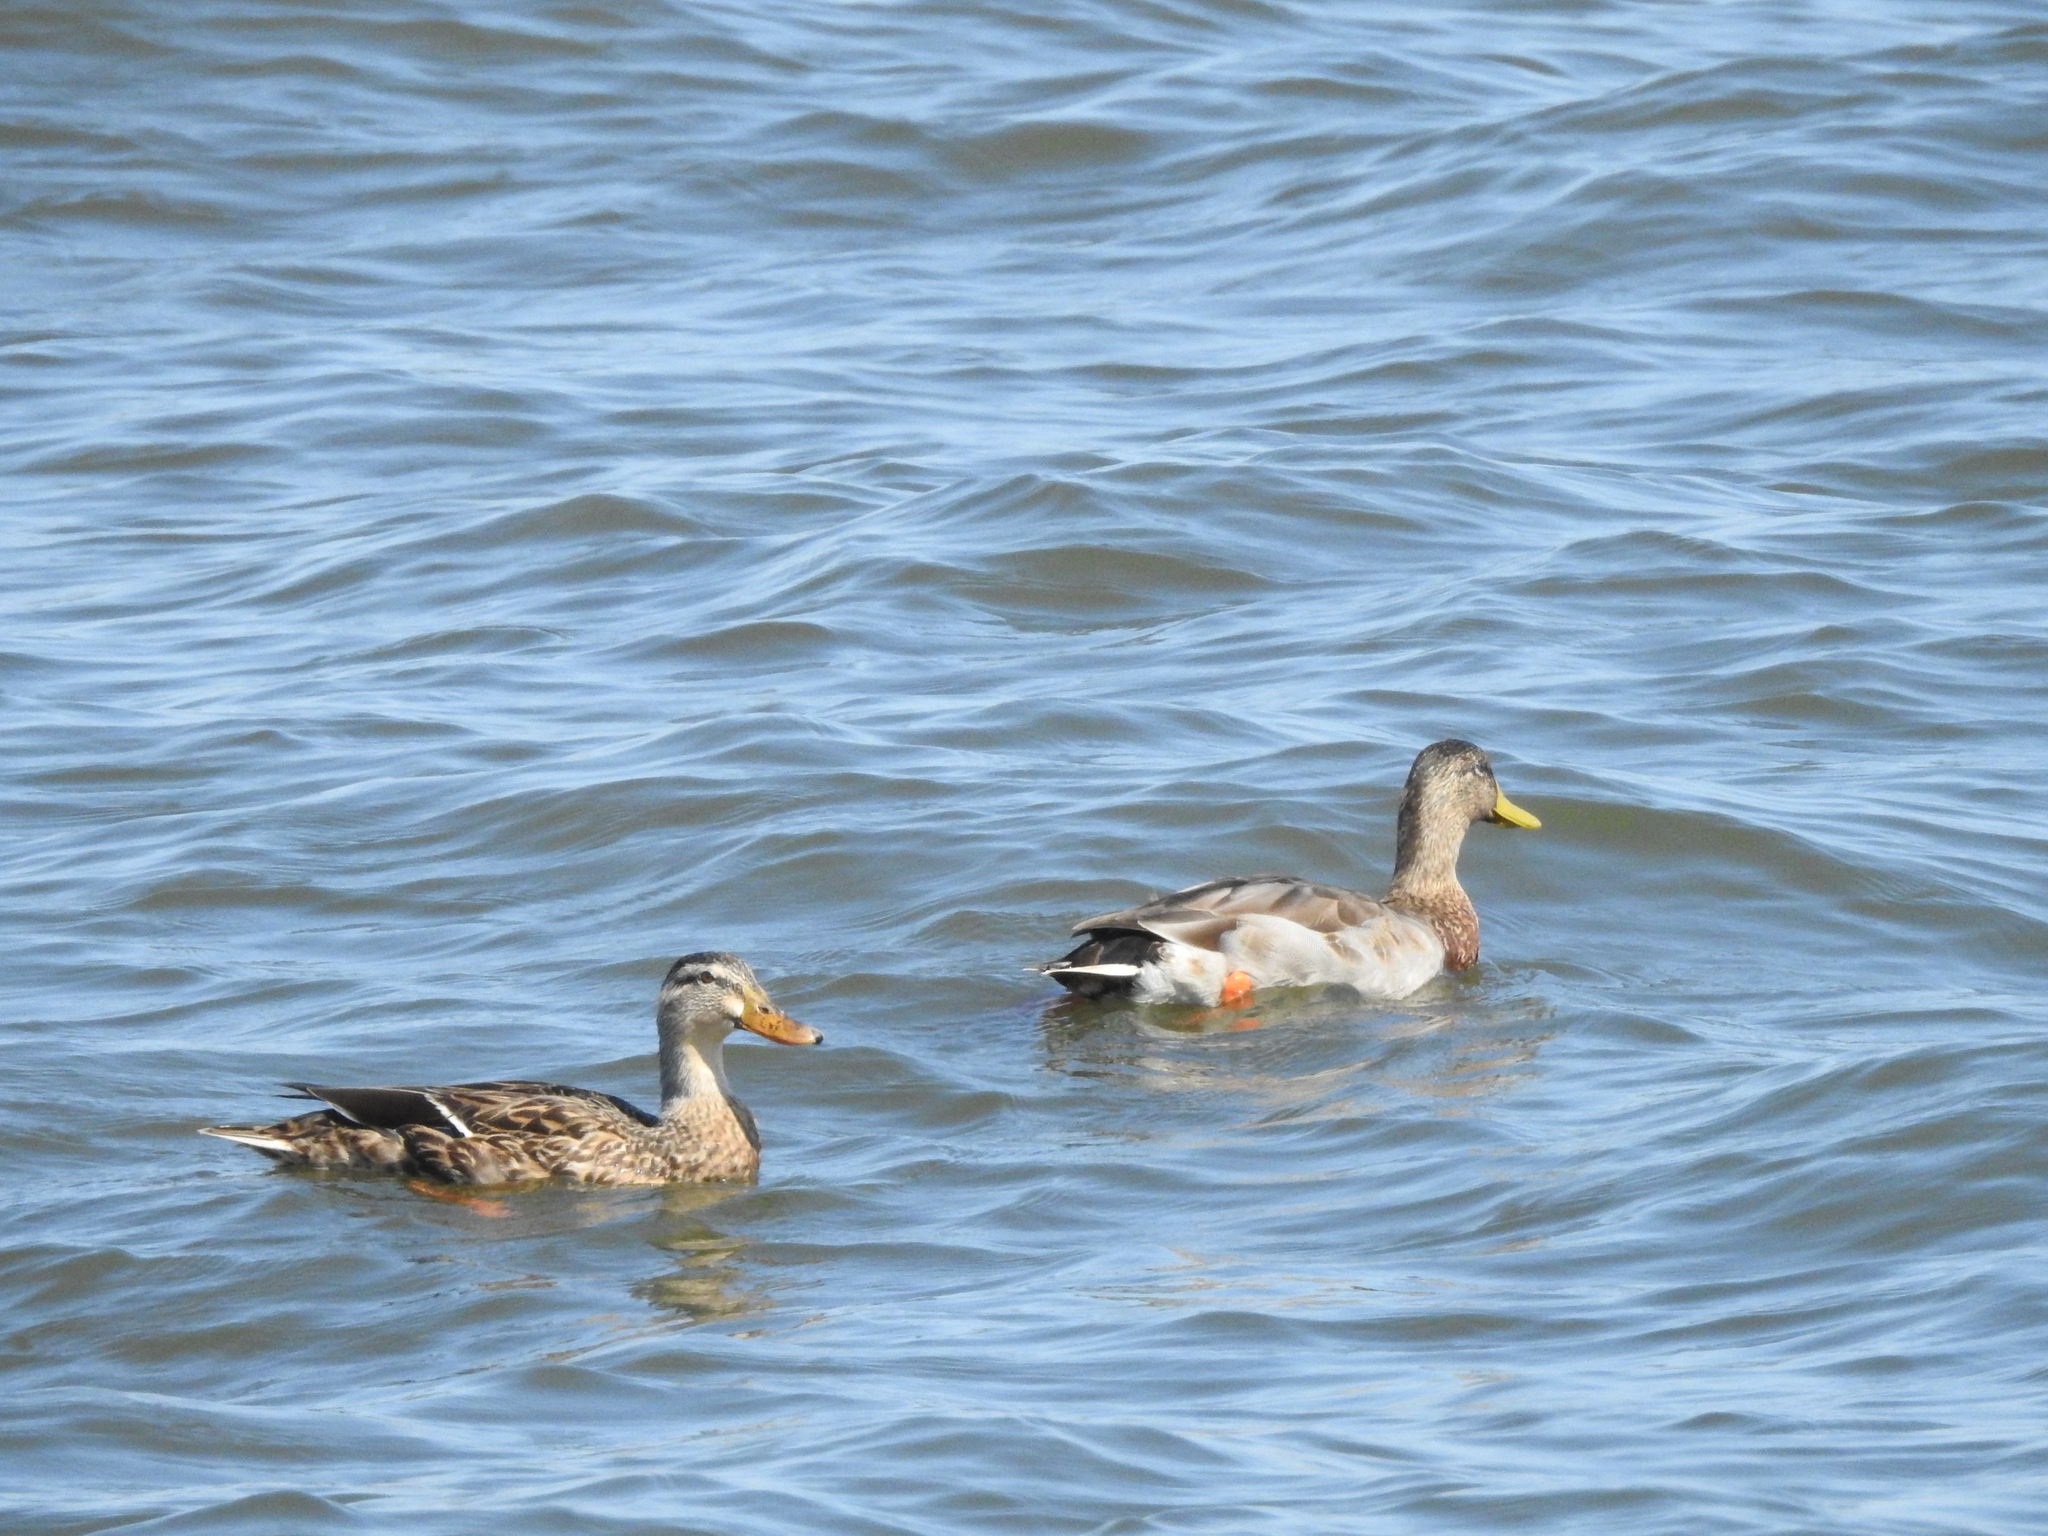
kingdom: Animalia
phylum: Chordata
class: Aves
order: Anseriformes
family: Anatidae
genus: Anas
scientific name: Anas platyrhynchos
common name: Mallard
